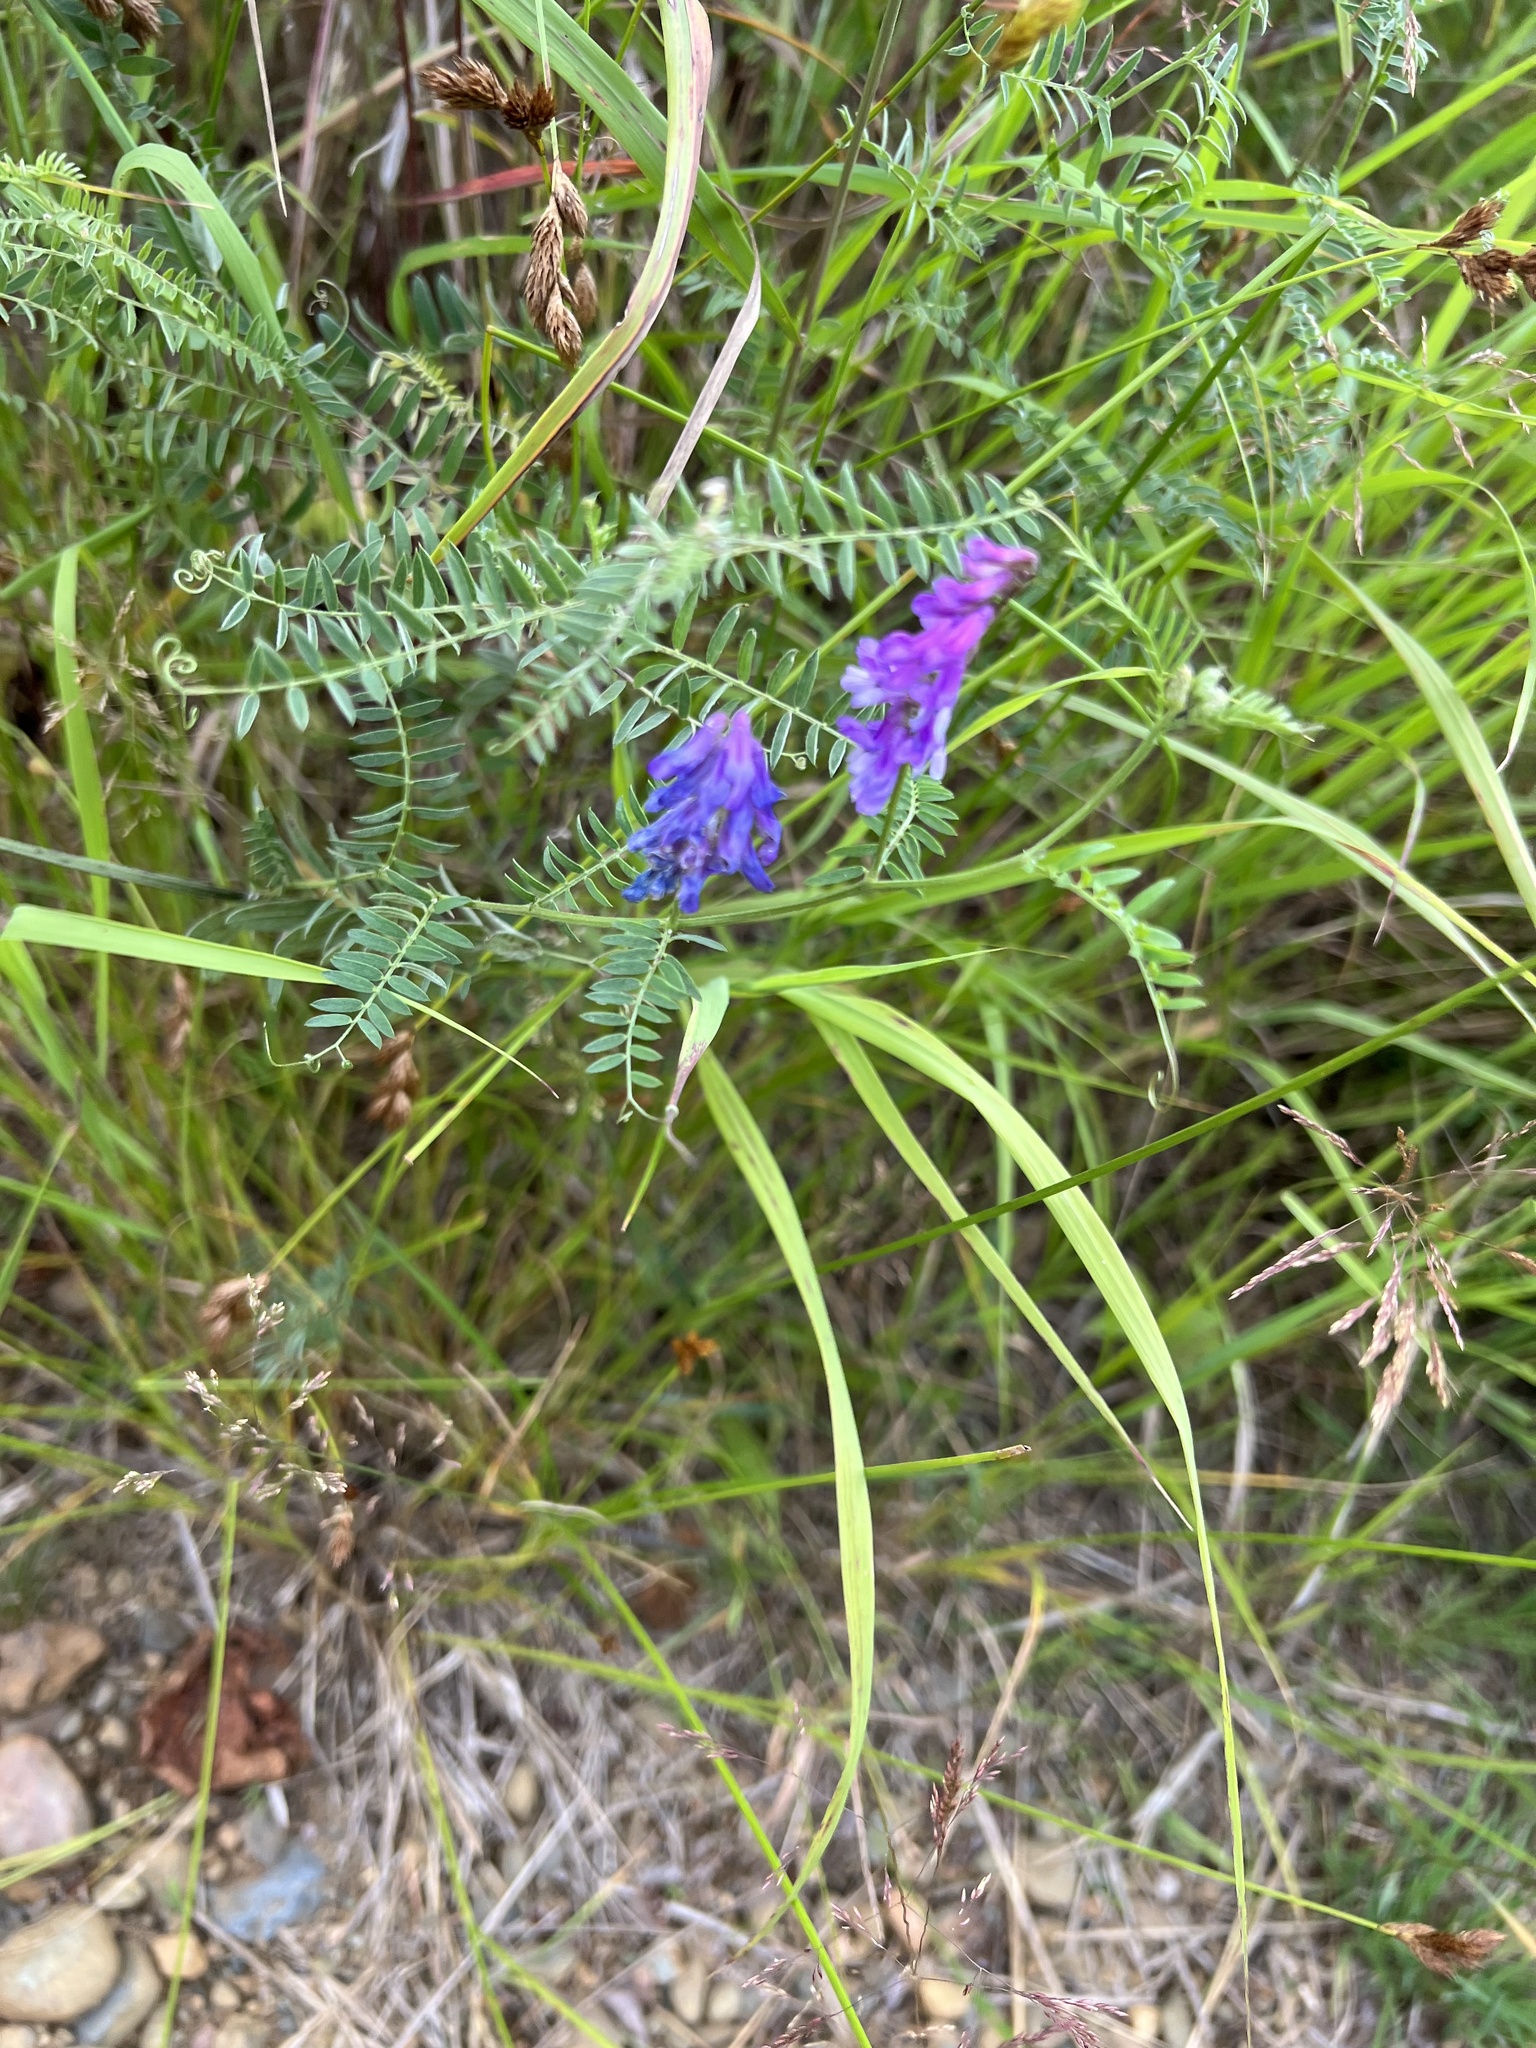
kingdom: Plantae
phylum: Tracheophyta
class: Magnoliopsida
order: Fabales
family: Fabaceae
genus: Vicia
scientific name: Vicia cracca
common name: Bird vetch
